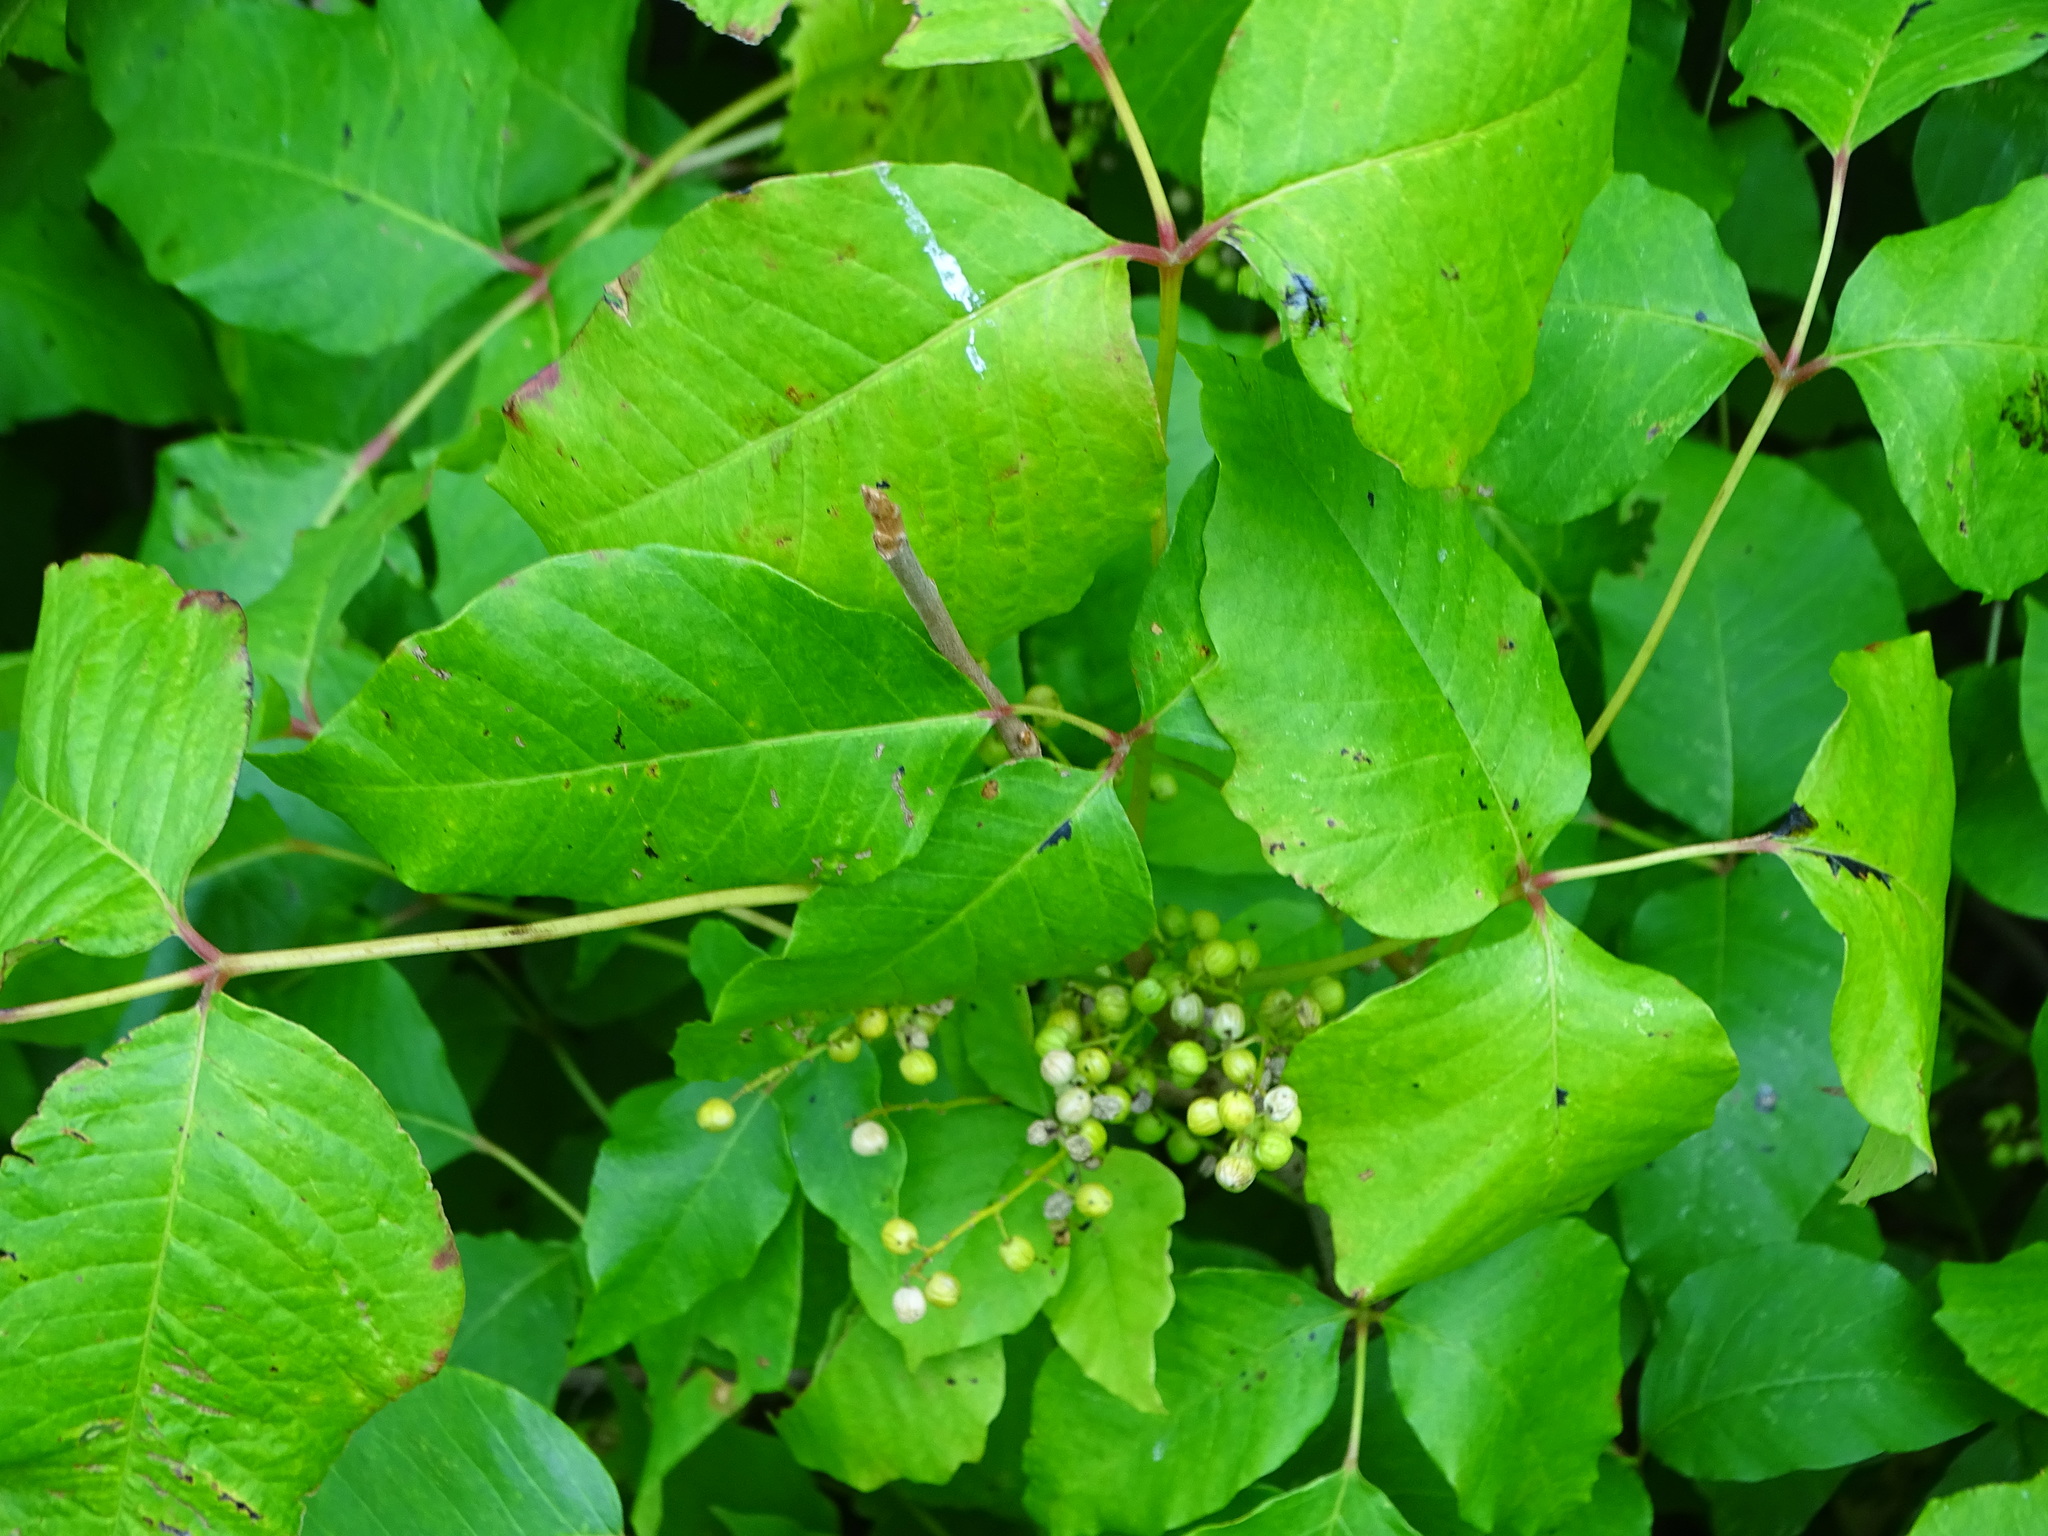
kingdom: Plantae
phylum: Tracheophyta
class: Magnoliopsida
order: Sapindales
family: Anacardiaceae
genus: Toxicodendron
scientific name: Toxicodendron radicans
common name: Poison ivy
